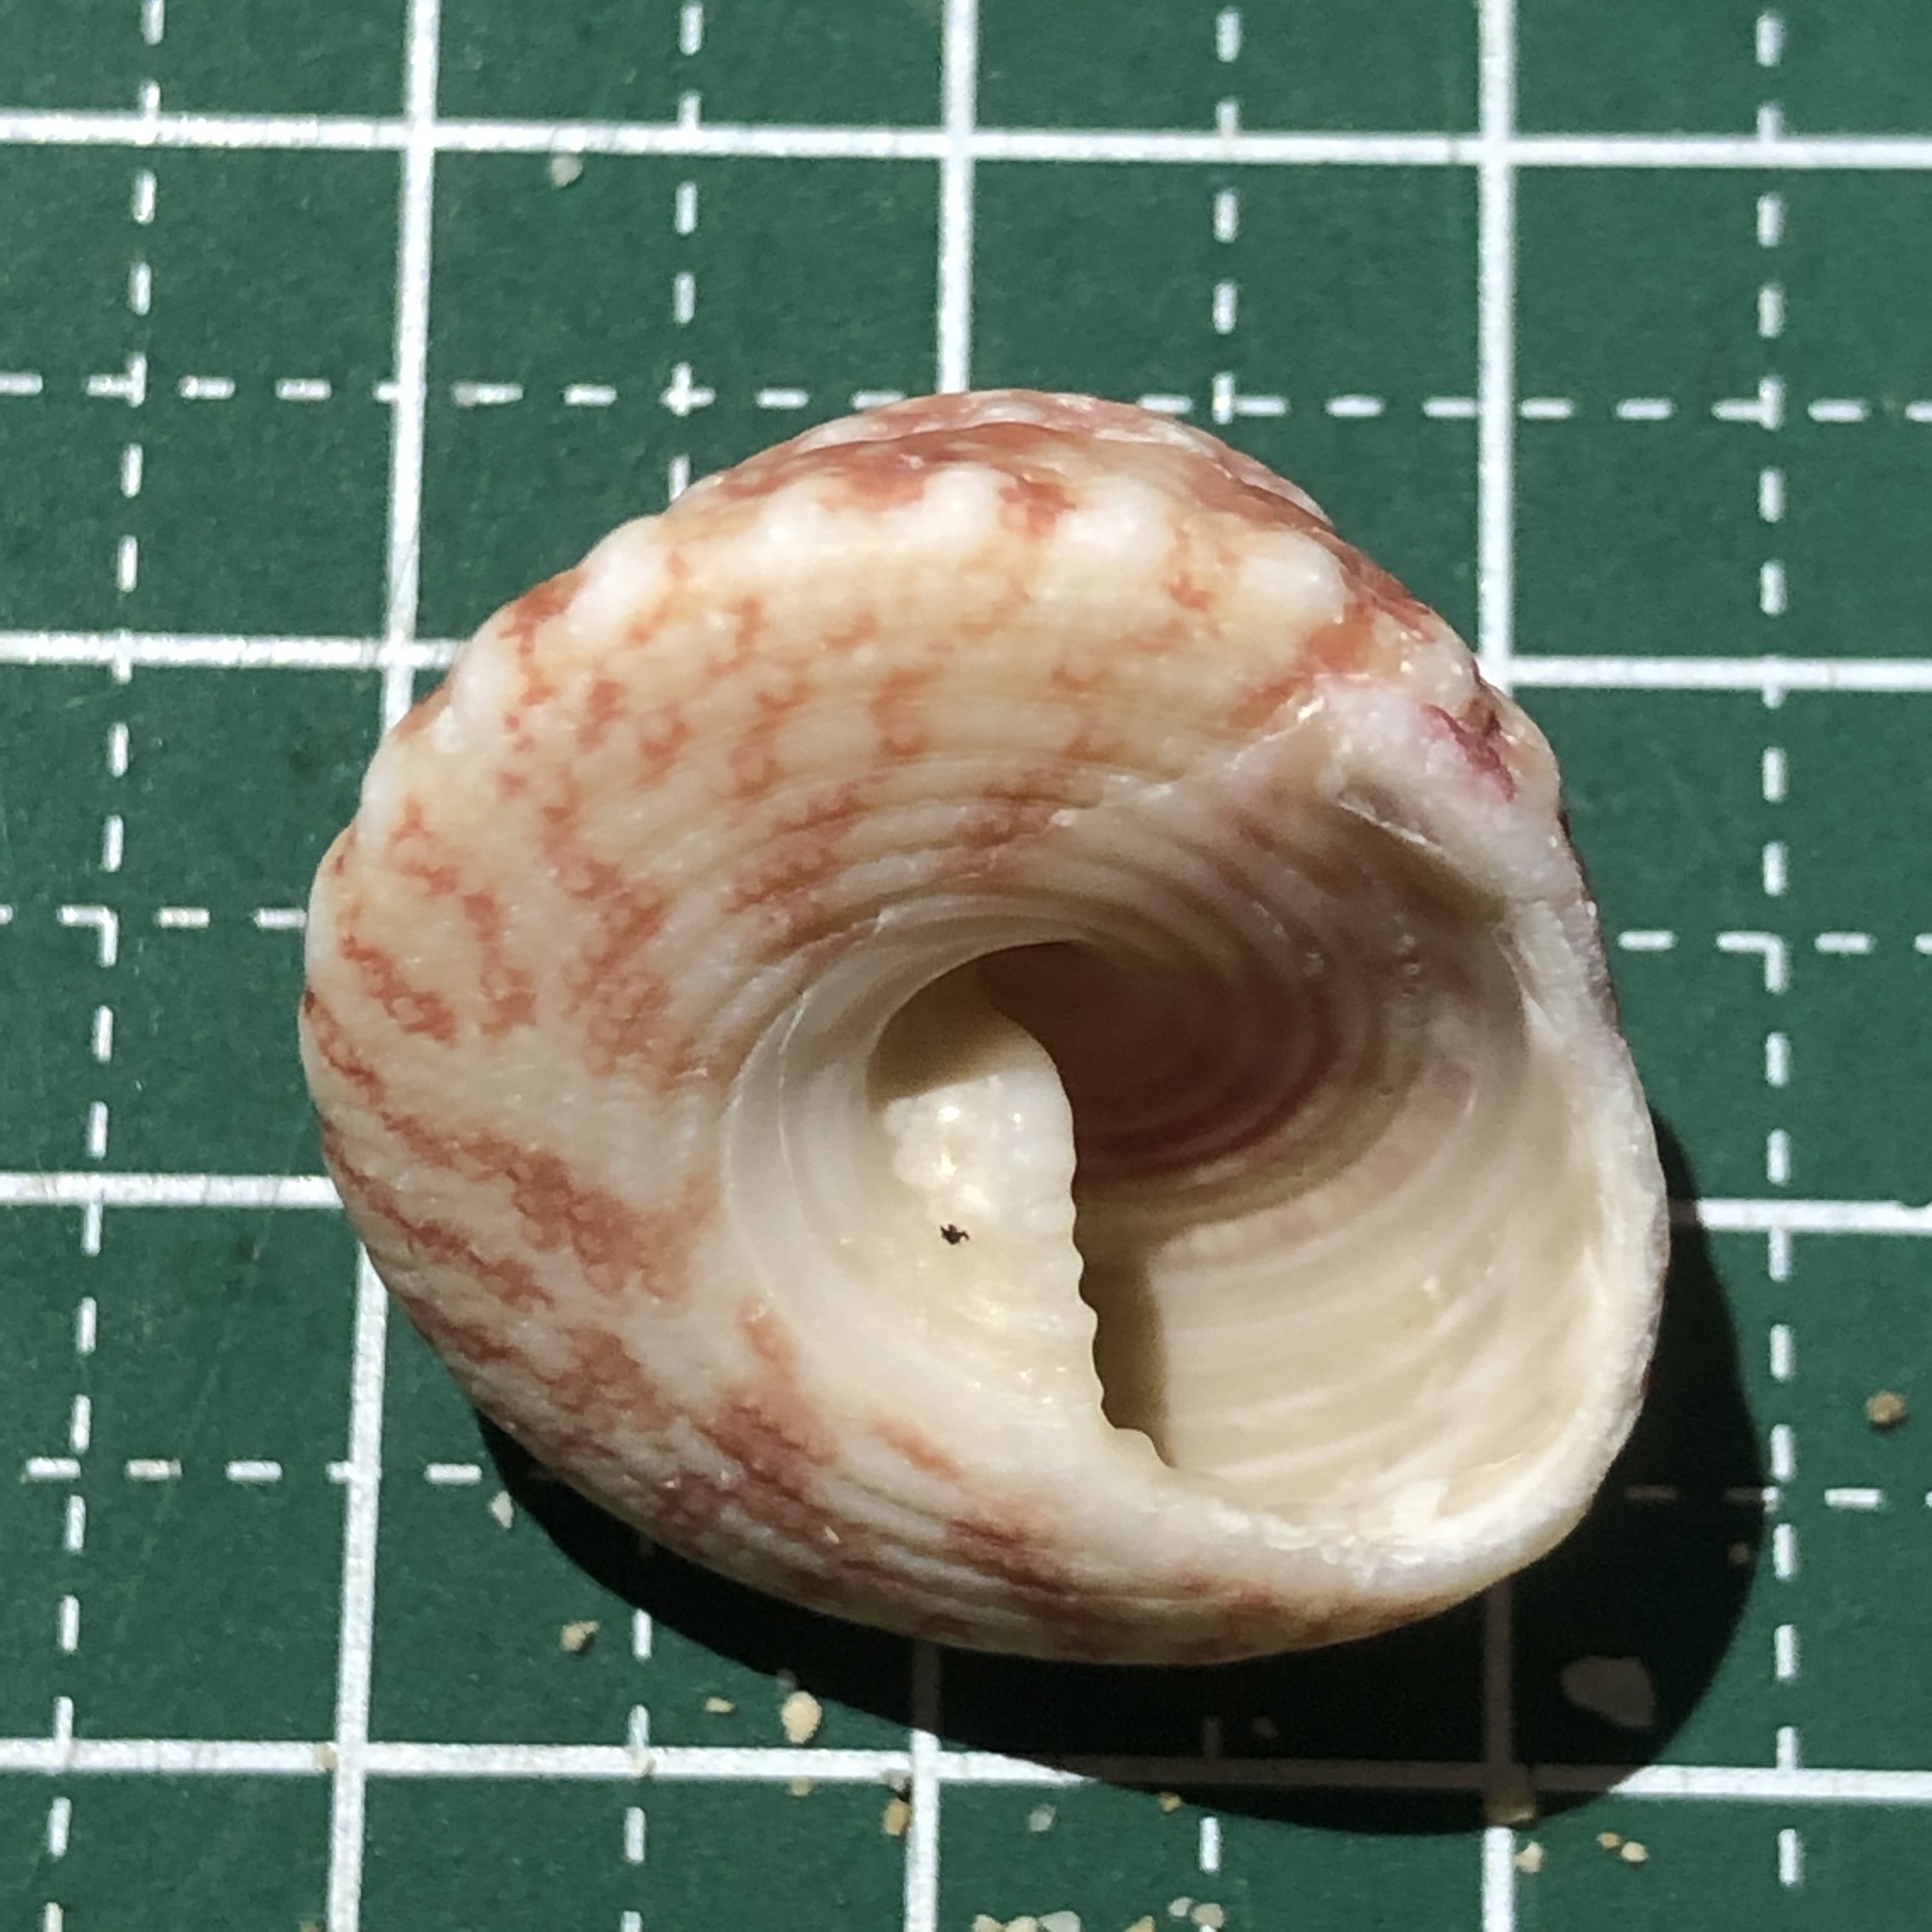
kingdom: Animalia
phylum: Mollusca
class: Gastropoda
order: Trochida
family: Trochidae
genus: Trochus
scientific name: Trochus stellatus
